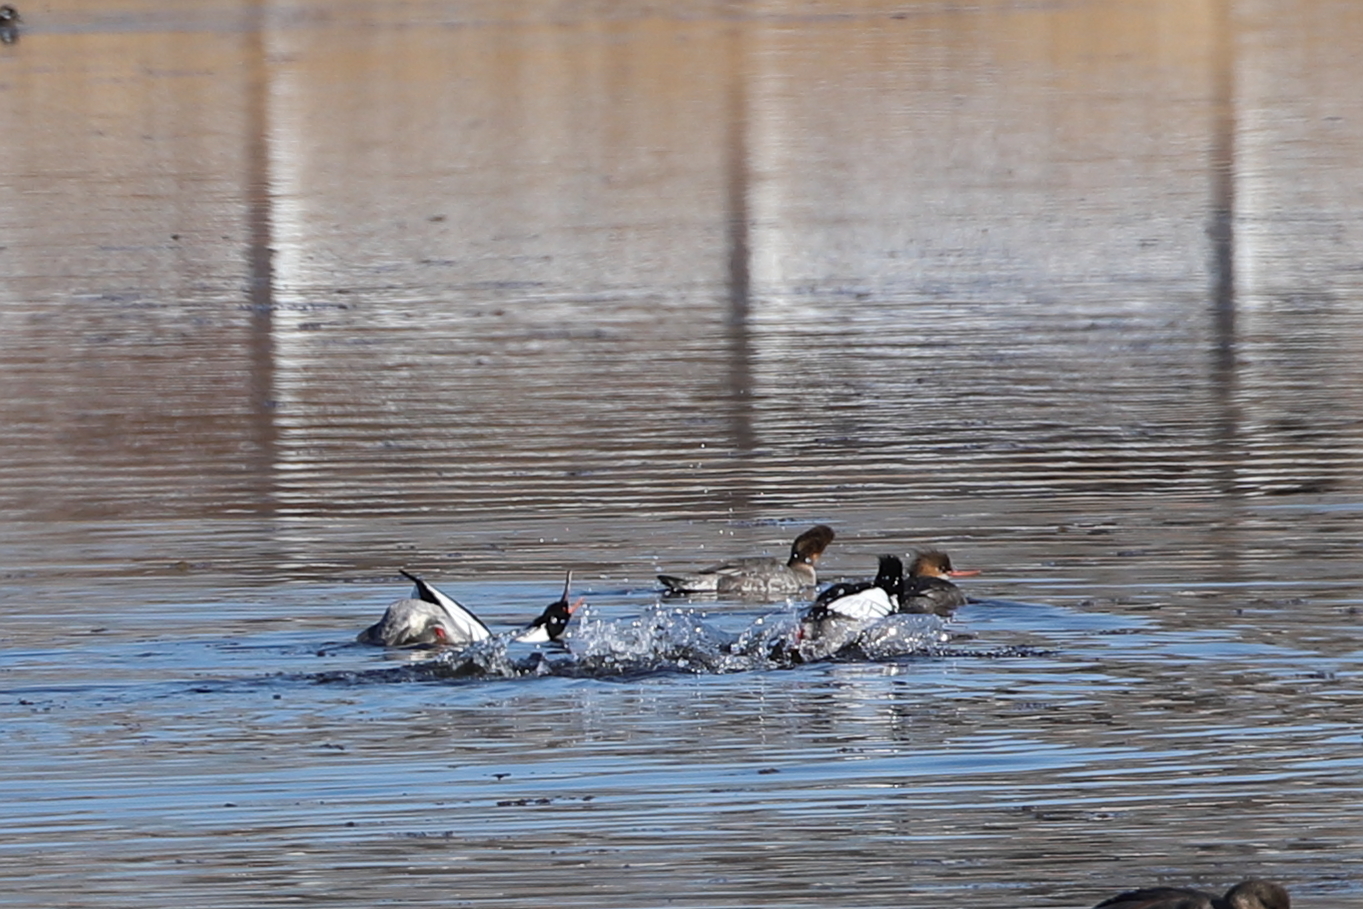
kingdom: Animalia
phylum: Chordata
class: Aves
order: Anseriformes
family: Anatidae
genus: Mergus
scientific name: Mergus serrator
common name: Red-breasted merganser
